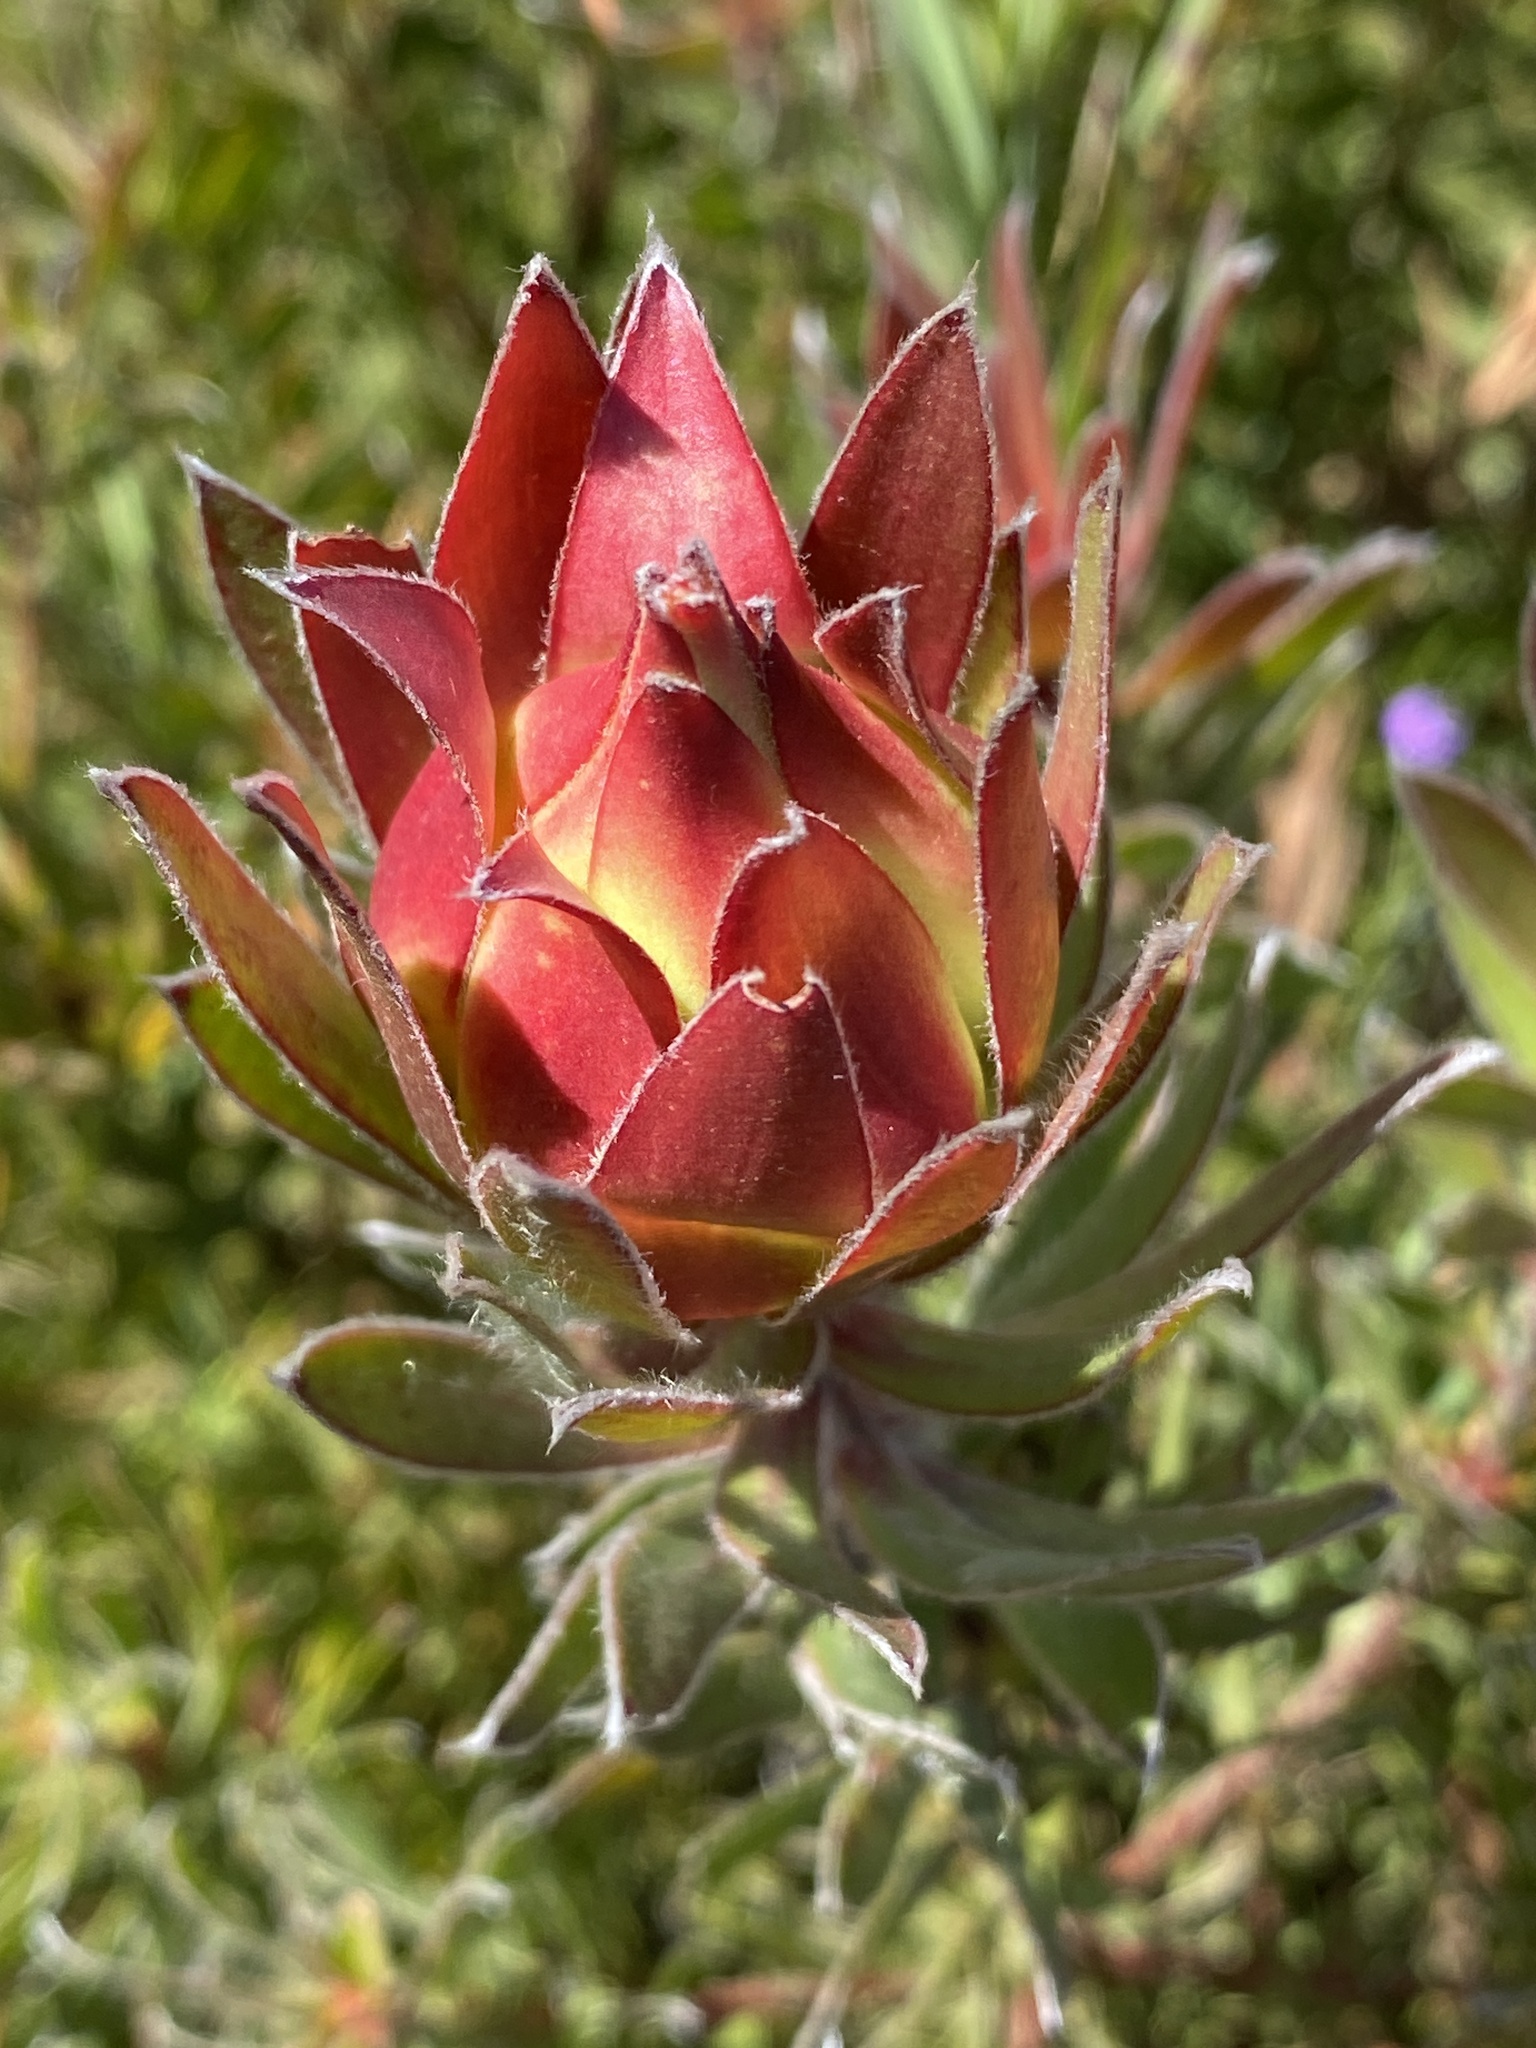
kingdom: Plantae
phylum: Tracheophyta
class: Magnoliopsida
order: Proteales
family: Proteaceae
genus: Leucadendron
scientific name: Leucadendron spissifolium
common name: Spear-leaf conebush
